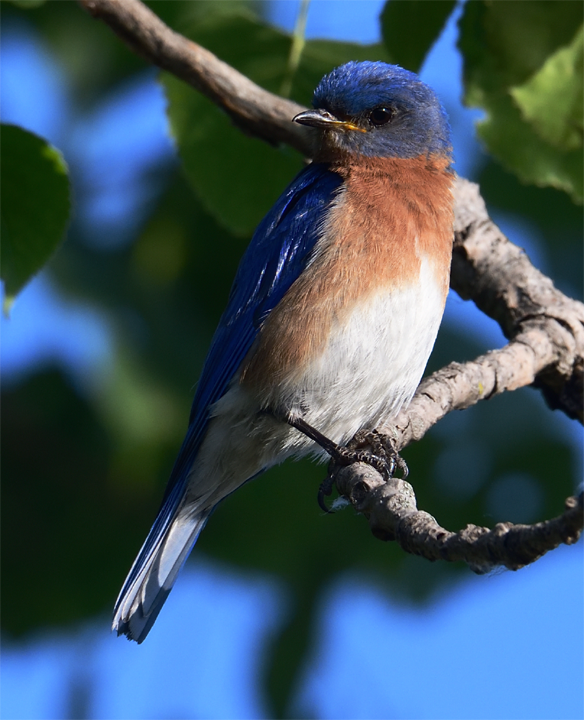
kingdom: Animalia
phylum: Chordata
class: Aves
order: Passeriformes
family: Turdidae
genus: Sialia
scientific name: Sialia sialis
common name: Eastern bluebird
